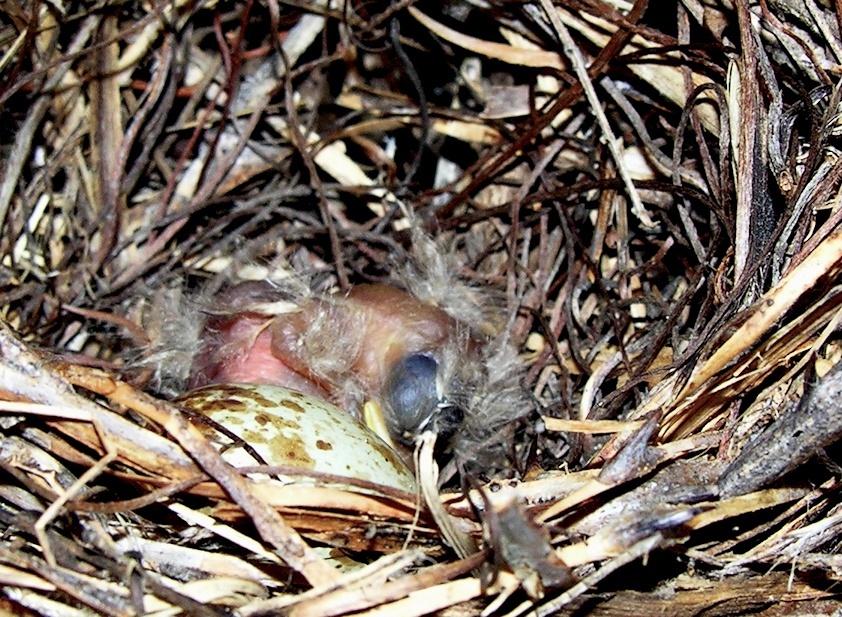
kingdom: Animalia
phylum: Chordata
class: Aves
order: Passeriformes
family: Muscicapidae
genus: Muscicapa
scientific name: Muscicapa caerulescens
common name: Ashy flycatcher
